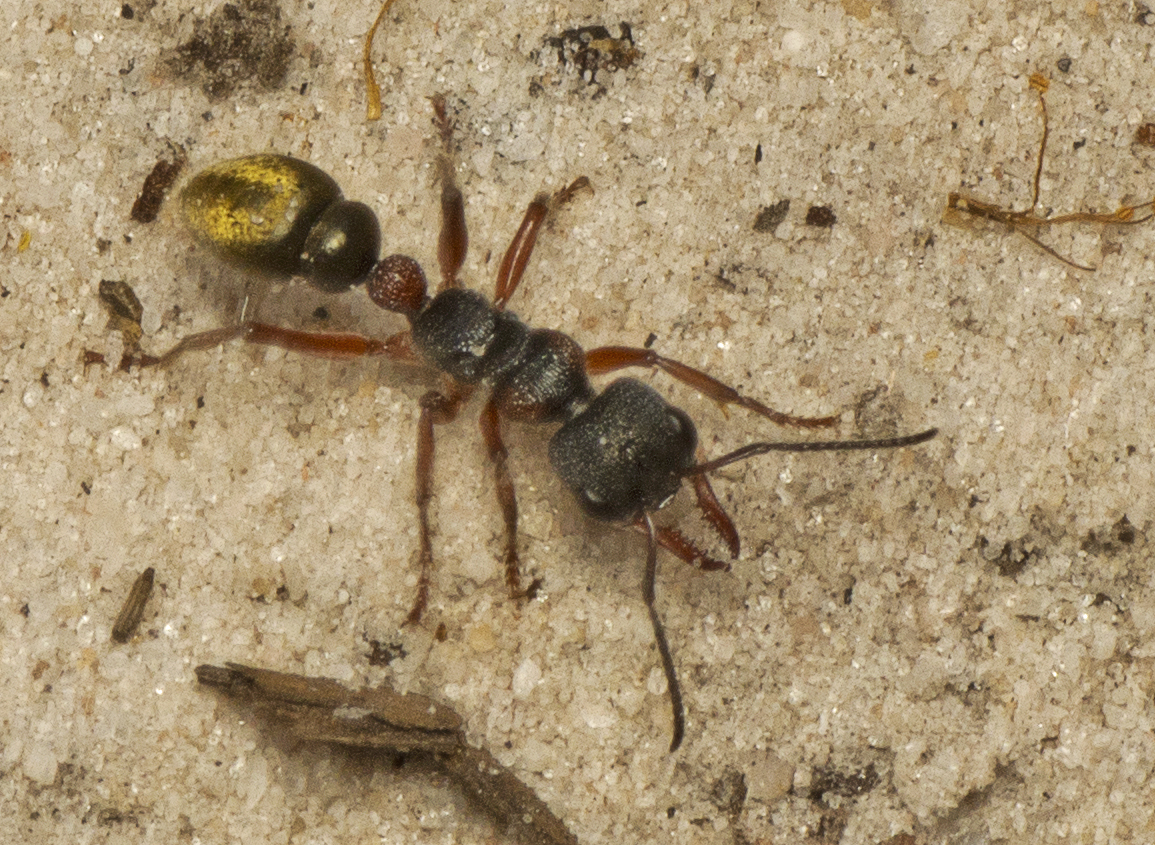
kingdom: Animalia
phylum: Arthropoda
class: Insecta
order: Hymenoptera
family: Formicidae
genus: Myrmecia
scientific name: Myrmecia chrysogaster
